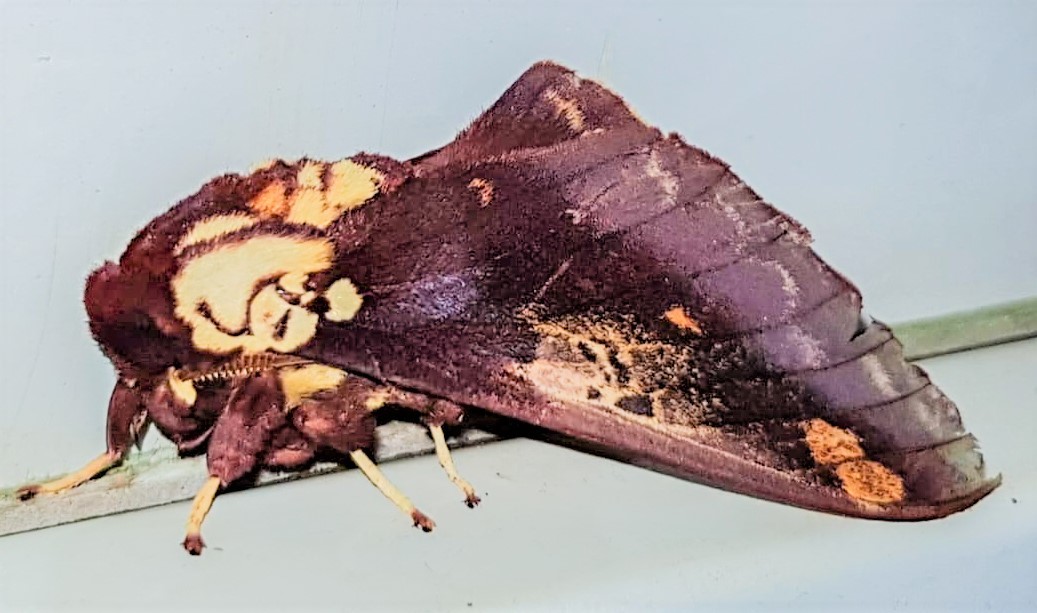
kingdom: Animalia
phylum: Arthropoda
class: Insecta
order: Lepidoptera
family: Saturniidae
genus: Citheronia
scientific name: Citheronia phoronea
